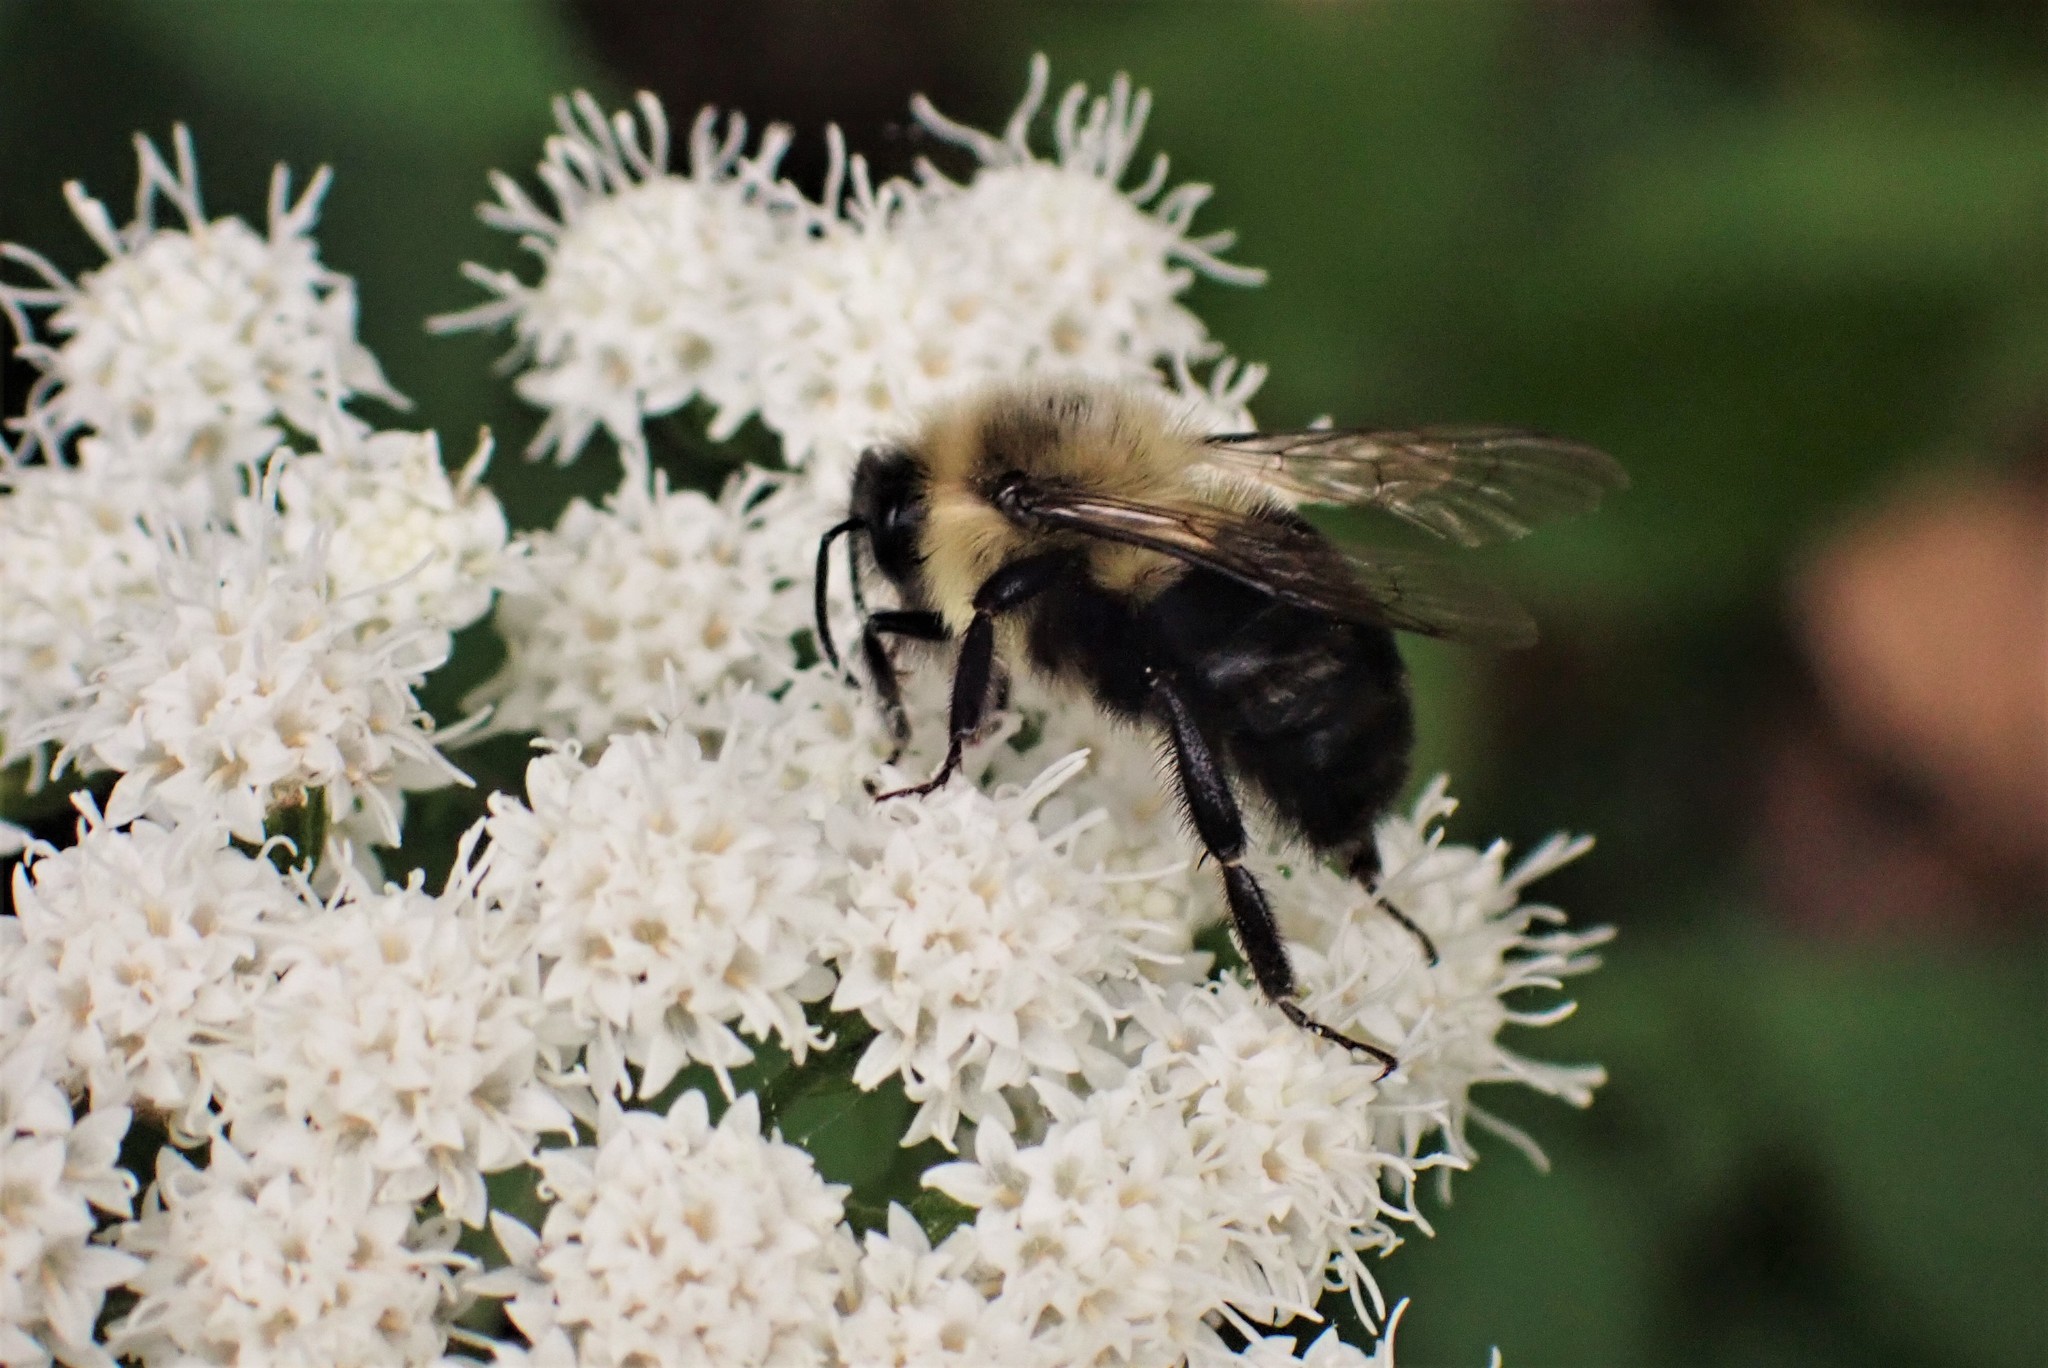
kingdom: Animalia
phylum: Arthropoda
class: Insecta
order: Hymenoptera
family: Apidae
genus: Bombus
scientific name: Bombus impatiens
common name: Common eastern bumble bee
